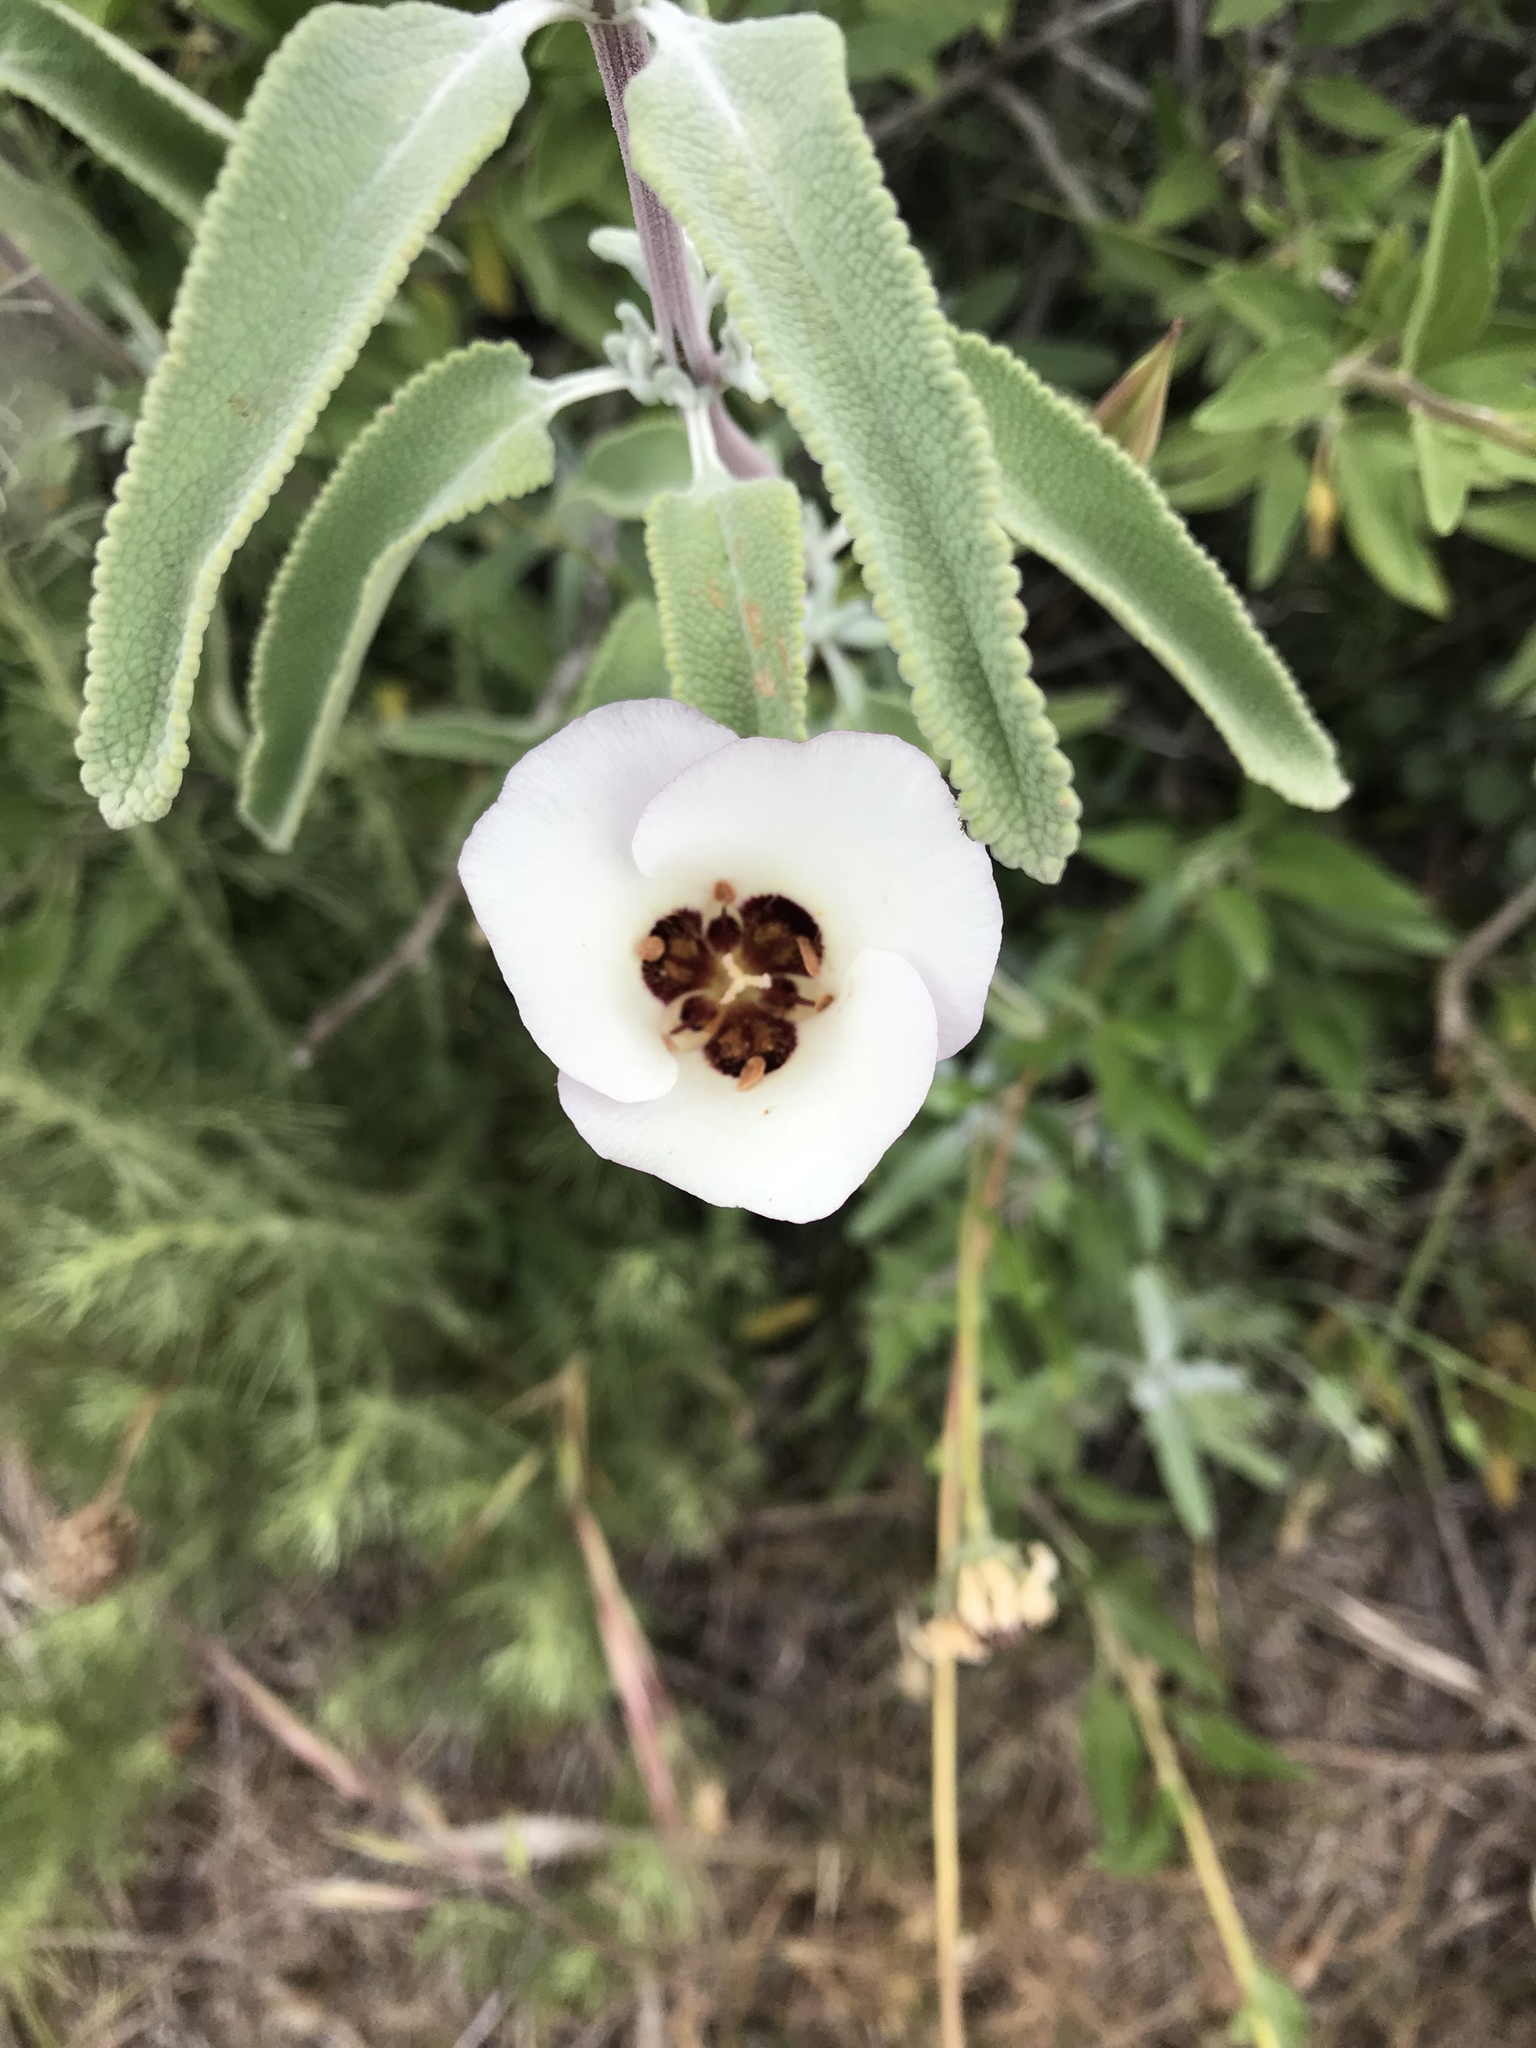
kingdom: Plantae
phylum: Tracheophyta
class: Liliopsida
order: Liliales
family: Liliaceae
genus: Calochortus
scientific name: Calochortus catalinae
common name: Catalina mariposa-lily
